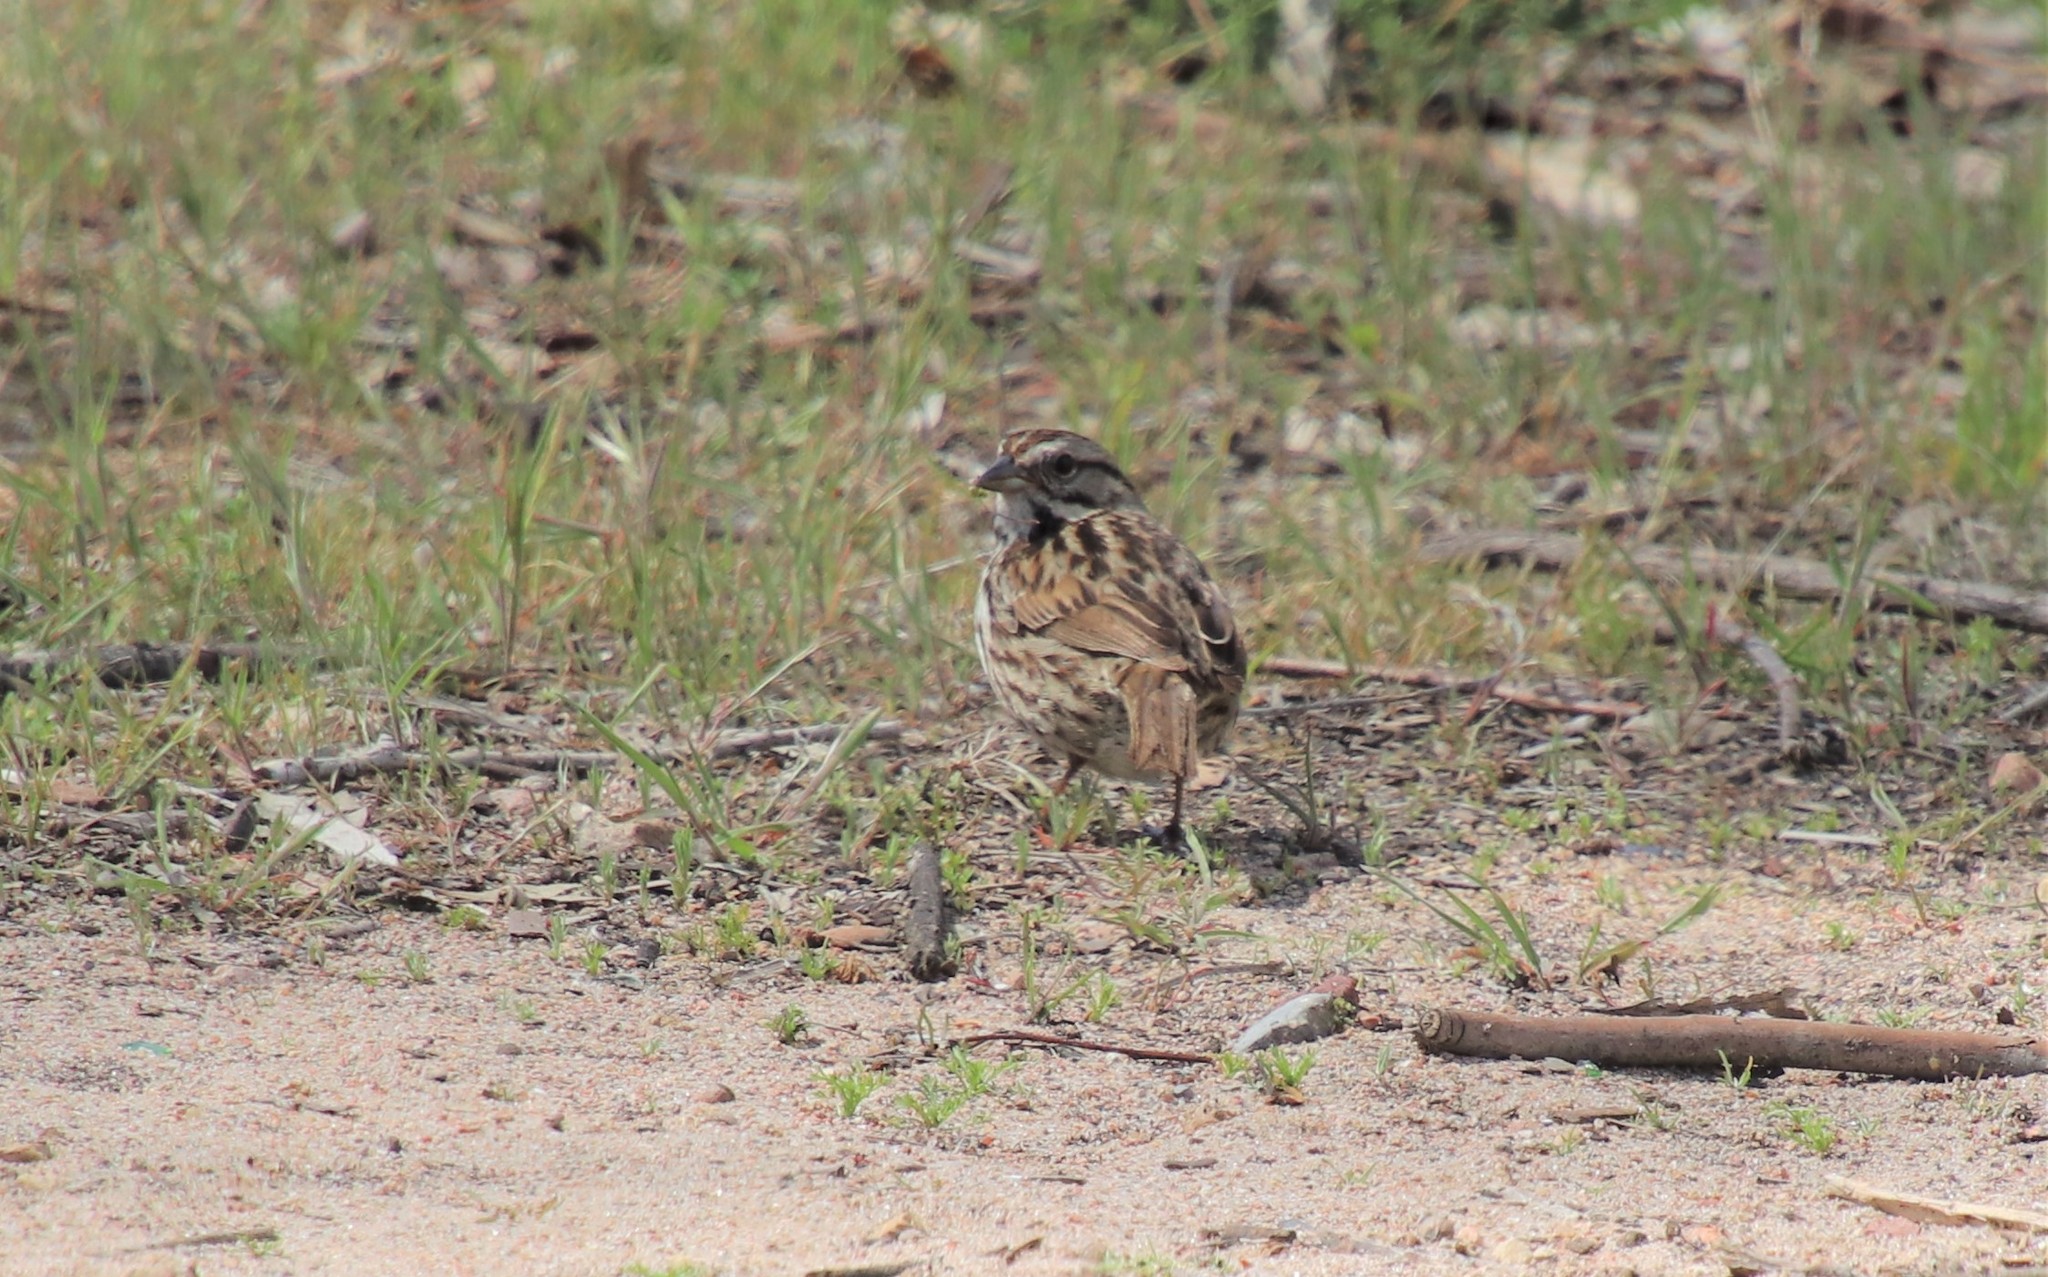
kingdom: Animalia
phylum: Chordata
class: Aves
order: Passeriformes
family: Passerellidae
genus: Melospiza
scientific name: Melospiza melodia
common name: Song sparrow
